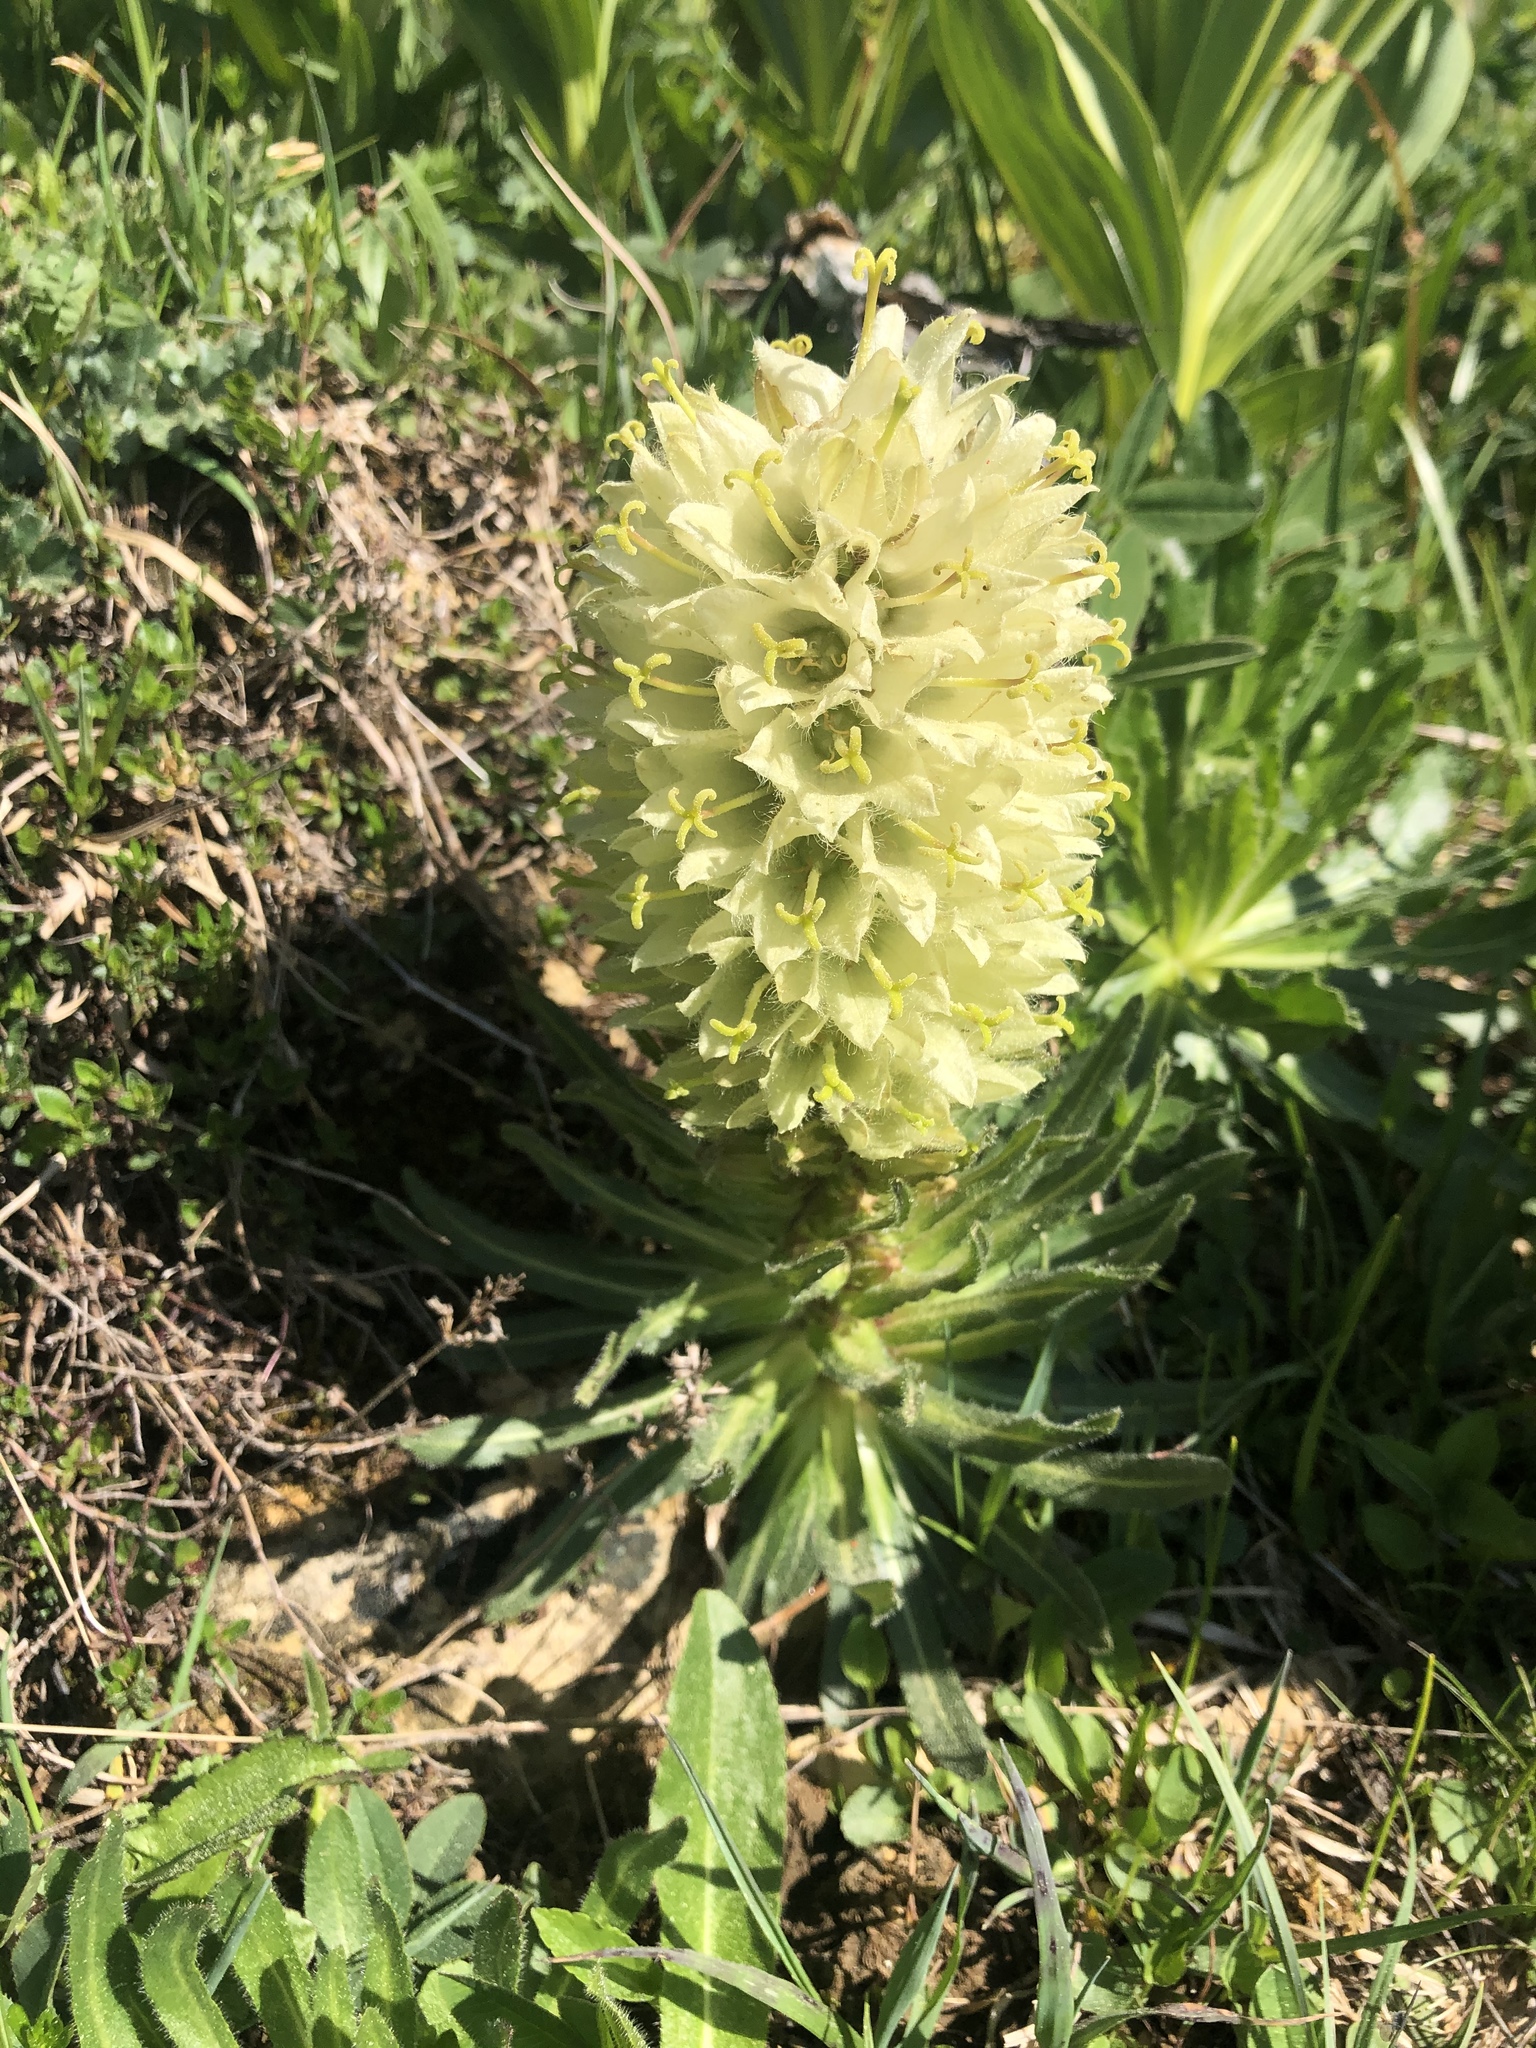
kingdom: Plantae
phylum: Tracheophyta
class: Magnoliopsida
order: Asterales
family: Campanulaceae
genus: Campanula
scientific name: Campanula thyrsoides
